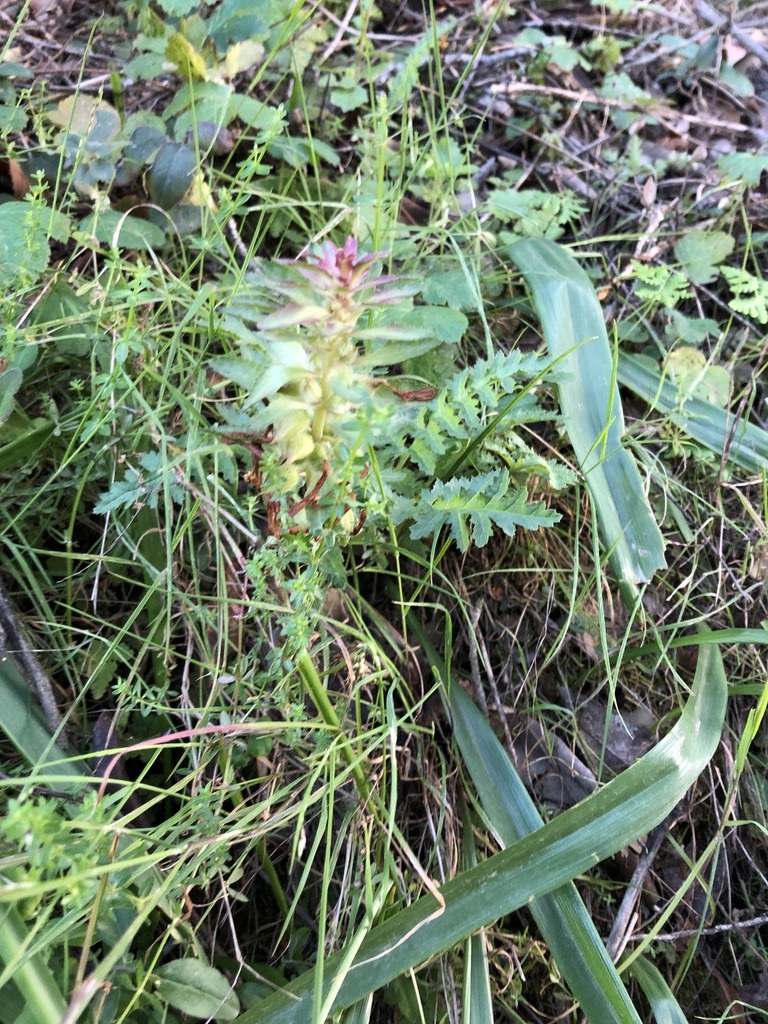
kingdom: Plantae
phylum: Tracheophyta
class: Magnoliopsida
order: Lamiales
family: Orobanchaceae
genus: Pedicularis
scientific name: Pedicularis densiflora
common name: Indian warrior
